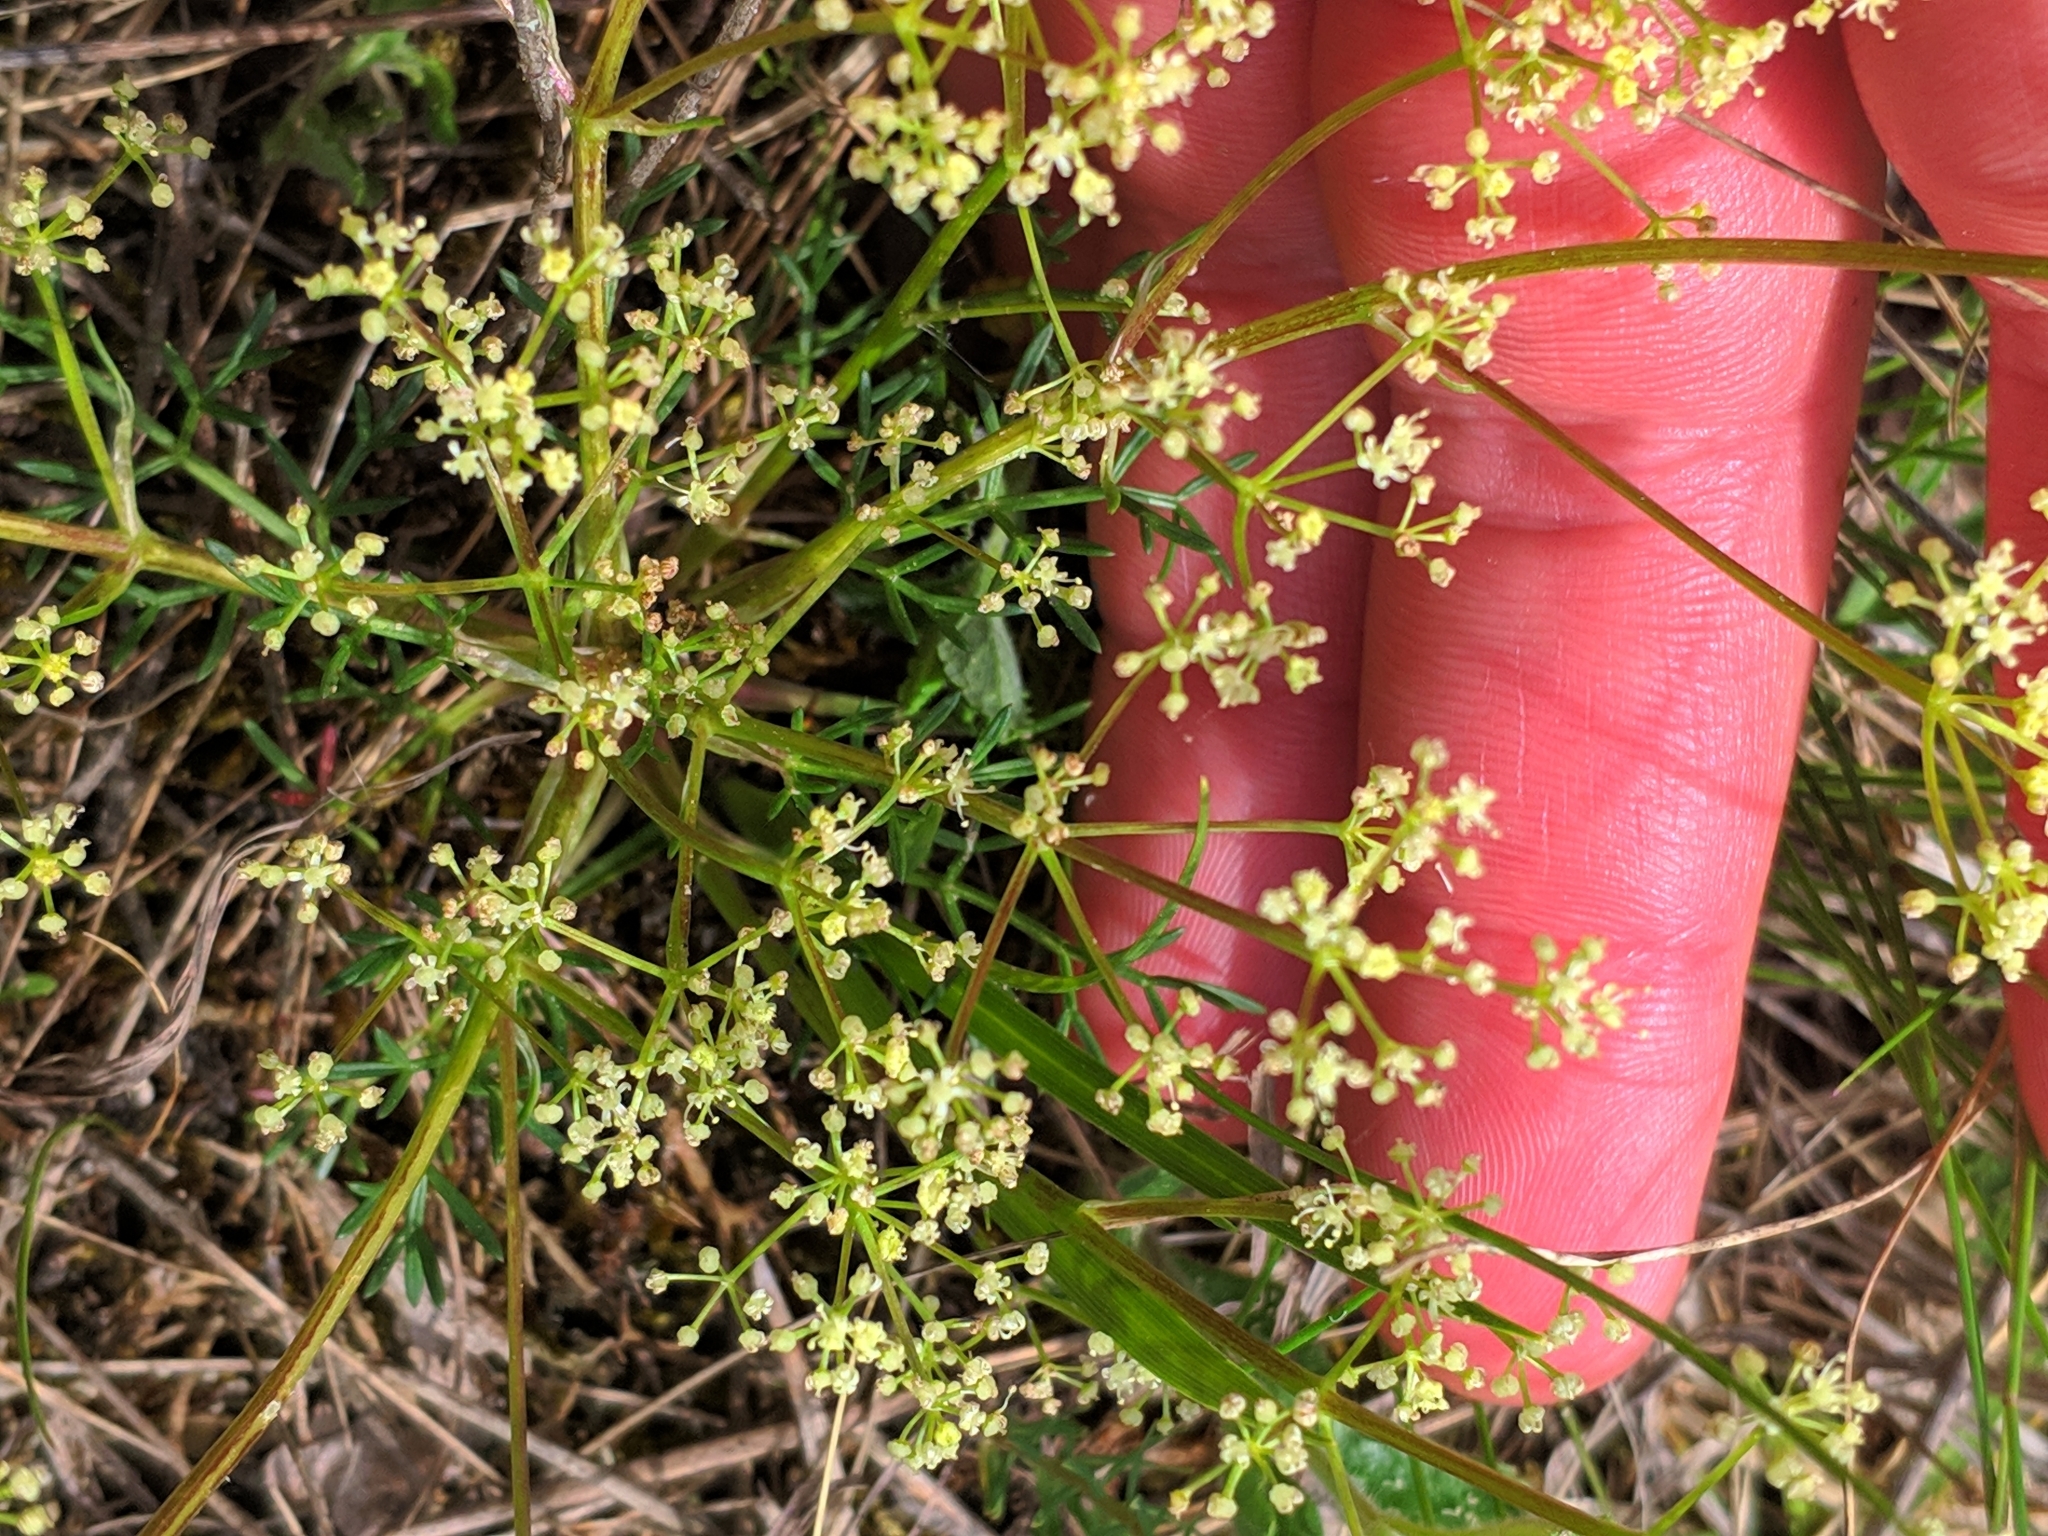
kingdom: Plantae
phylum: Tracheophyta
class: Magnoliopsida
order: Apiales
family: Apiaceae
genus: Trinia
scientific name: Trinia glauca
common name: Honewort
